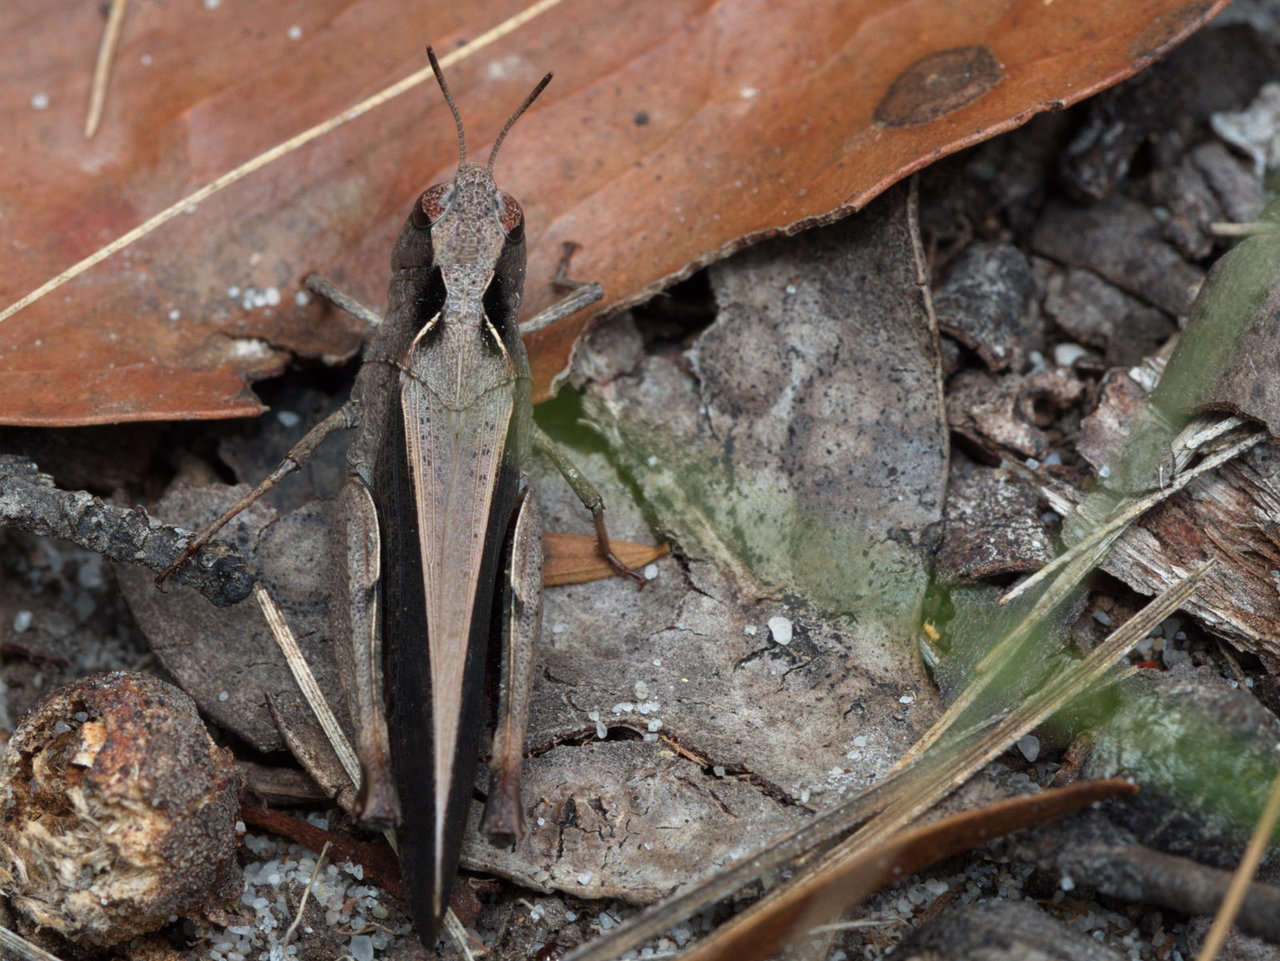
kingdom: Animalia
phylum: Arthropoda
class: Insecta
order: Orthoptera
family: Acrididae
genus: Cryptobothrus
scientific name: Cryptobothrus chrysophorus
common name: Golden bandwing
